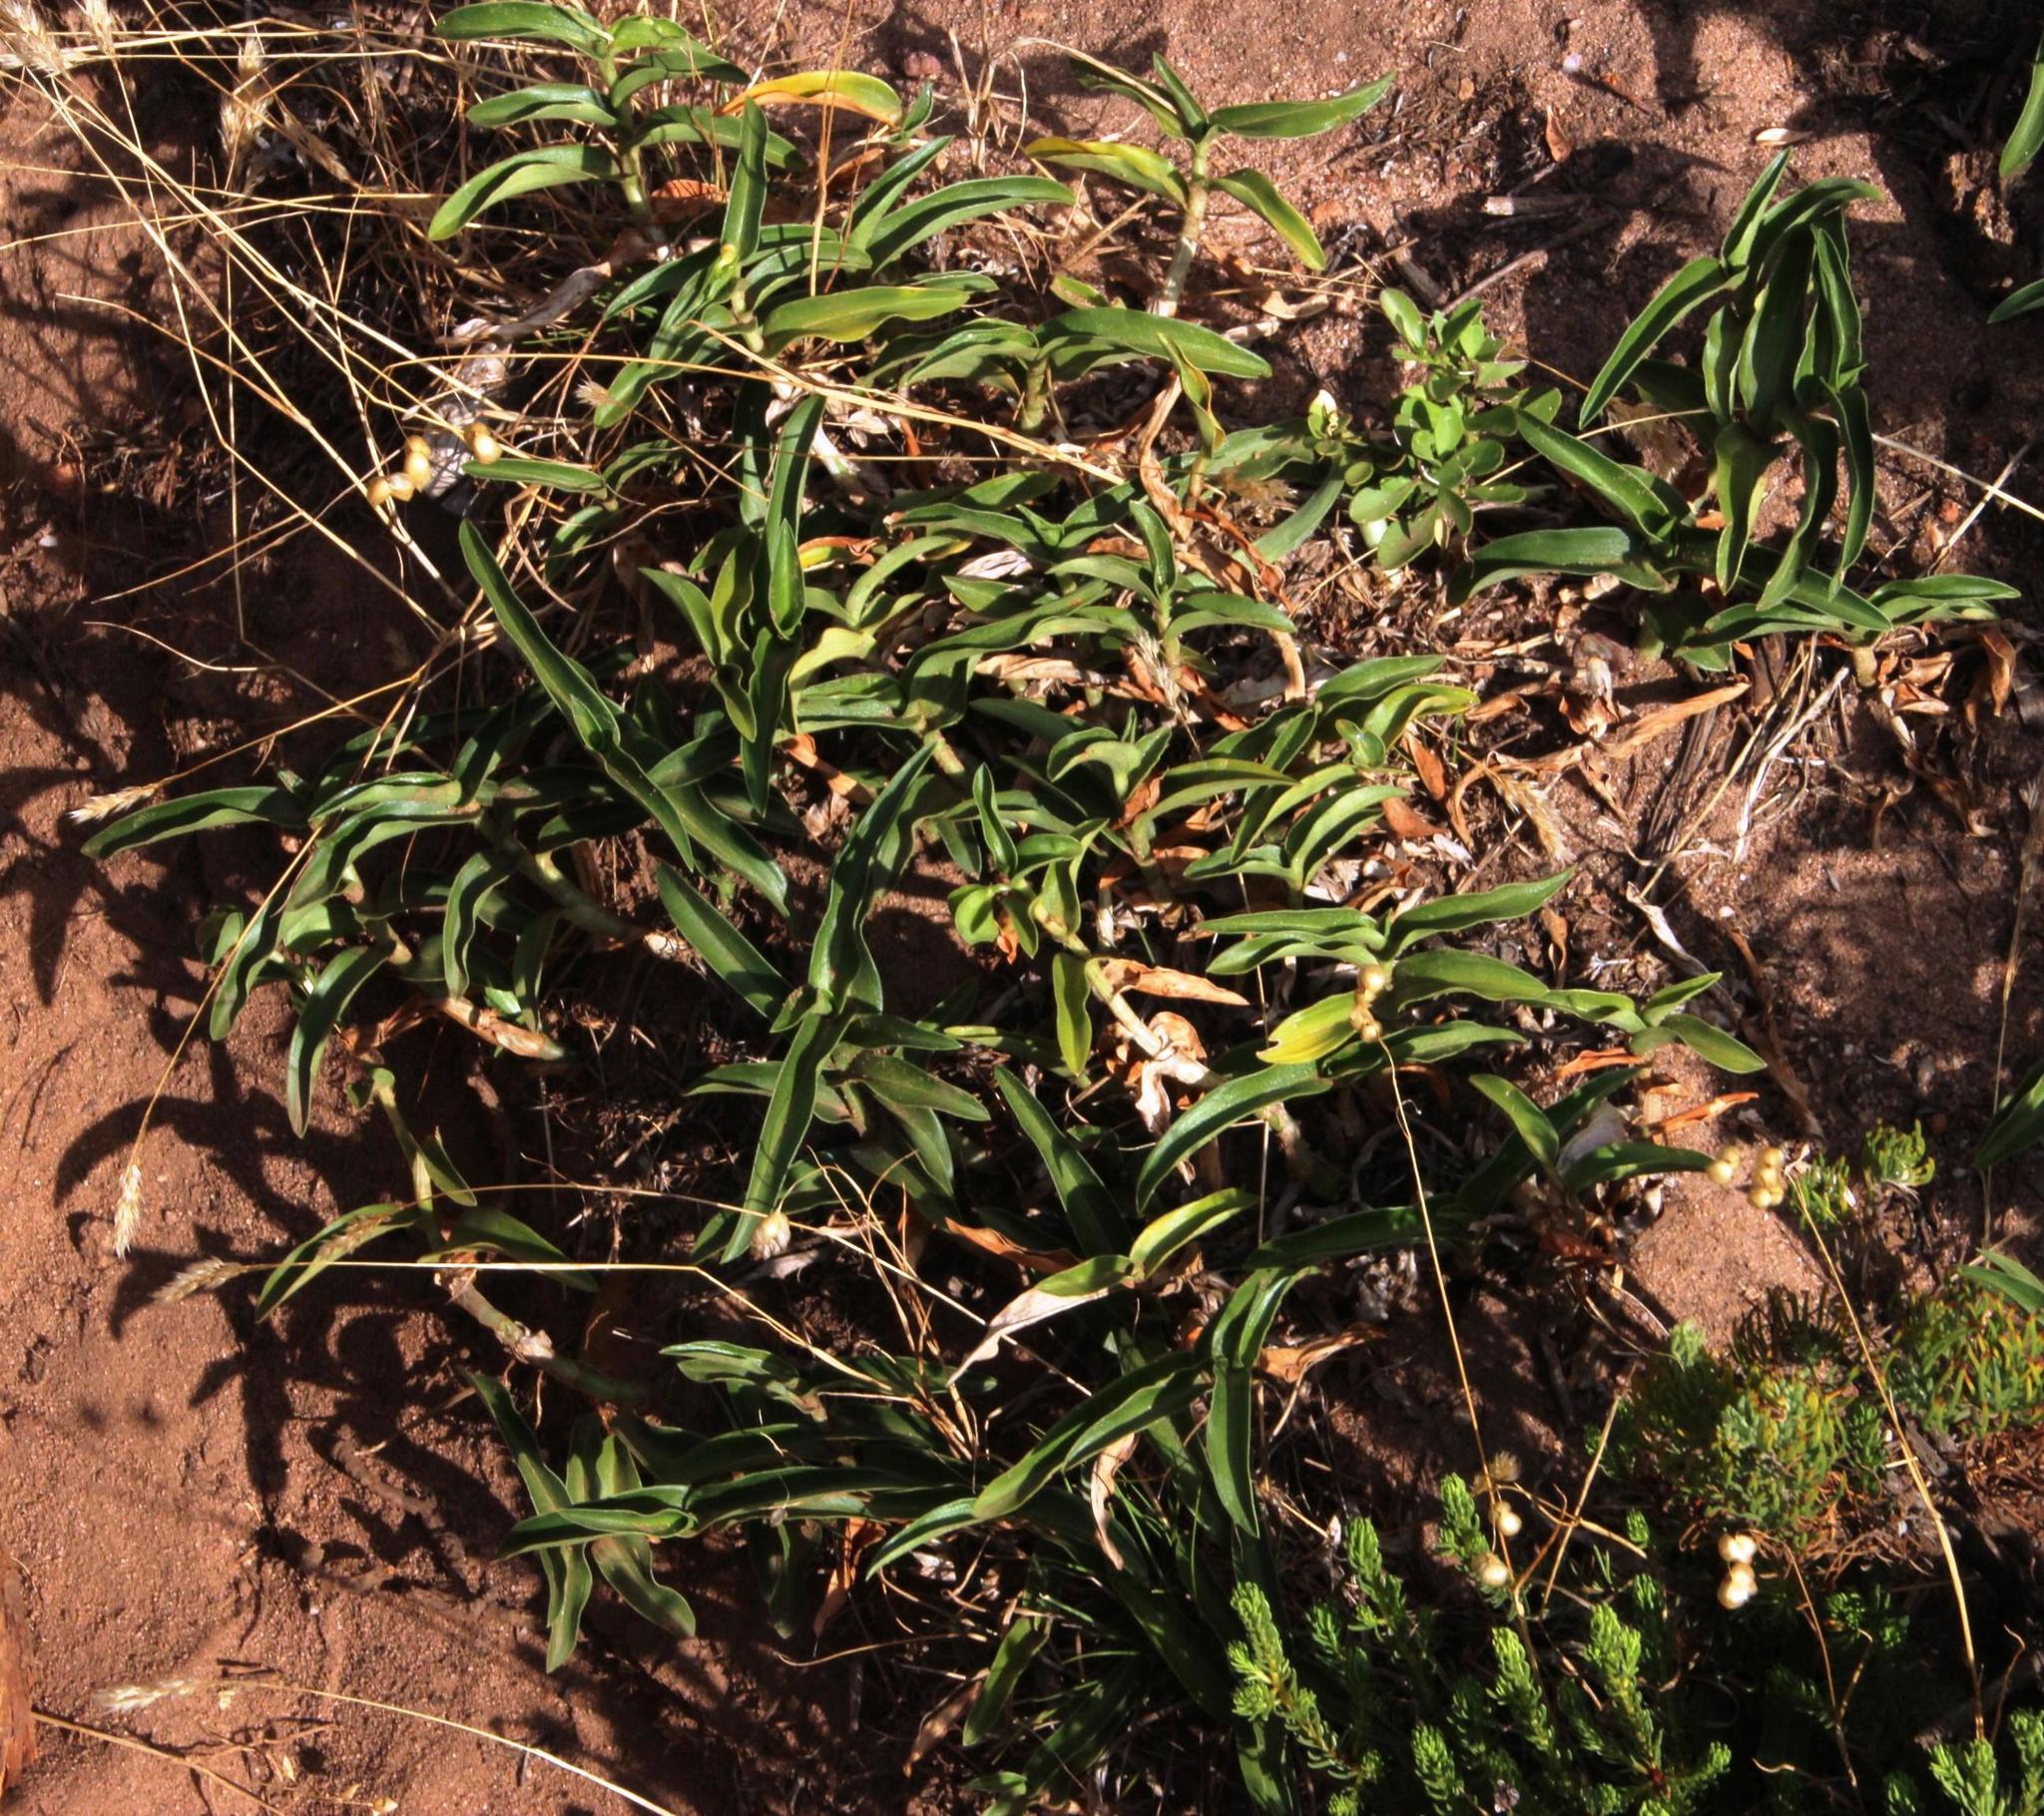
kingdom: Plantae
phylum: Tracheophyta
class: Liliopsida
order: Commelinales
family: Commelinaceae
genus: Commelina
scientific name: Commelina africana
